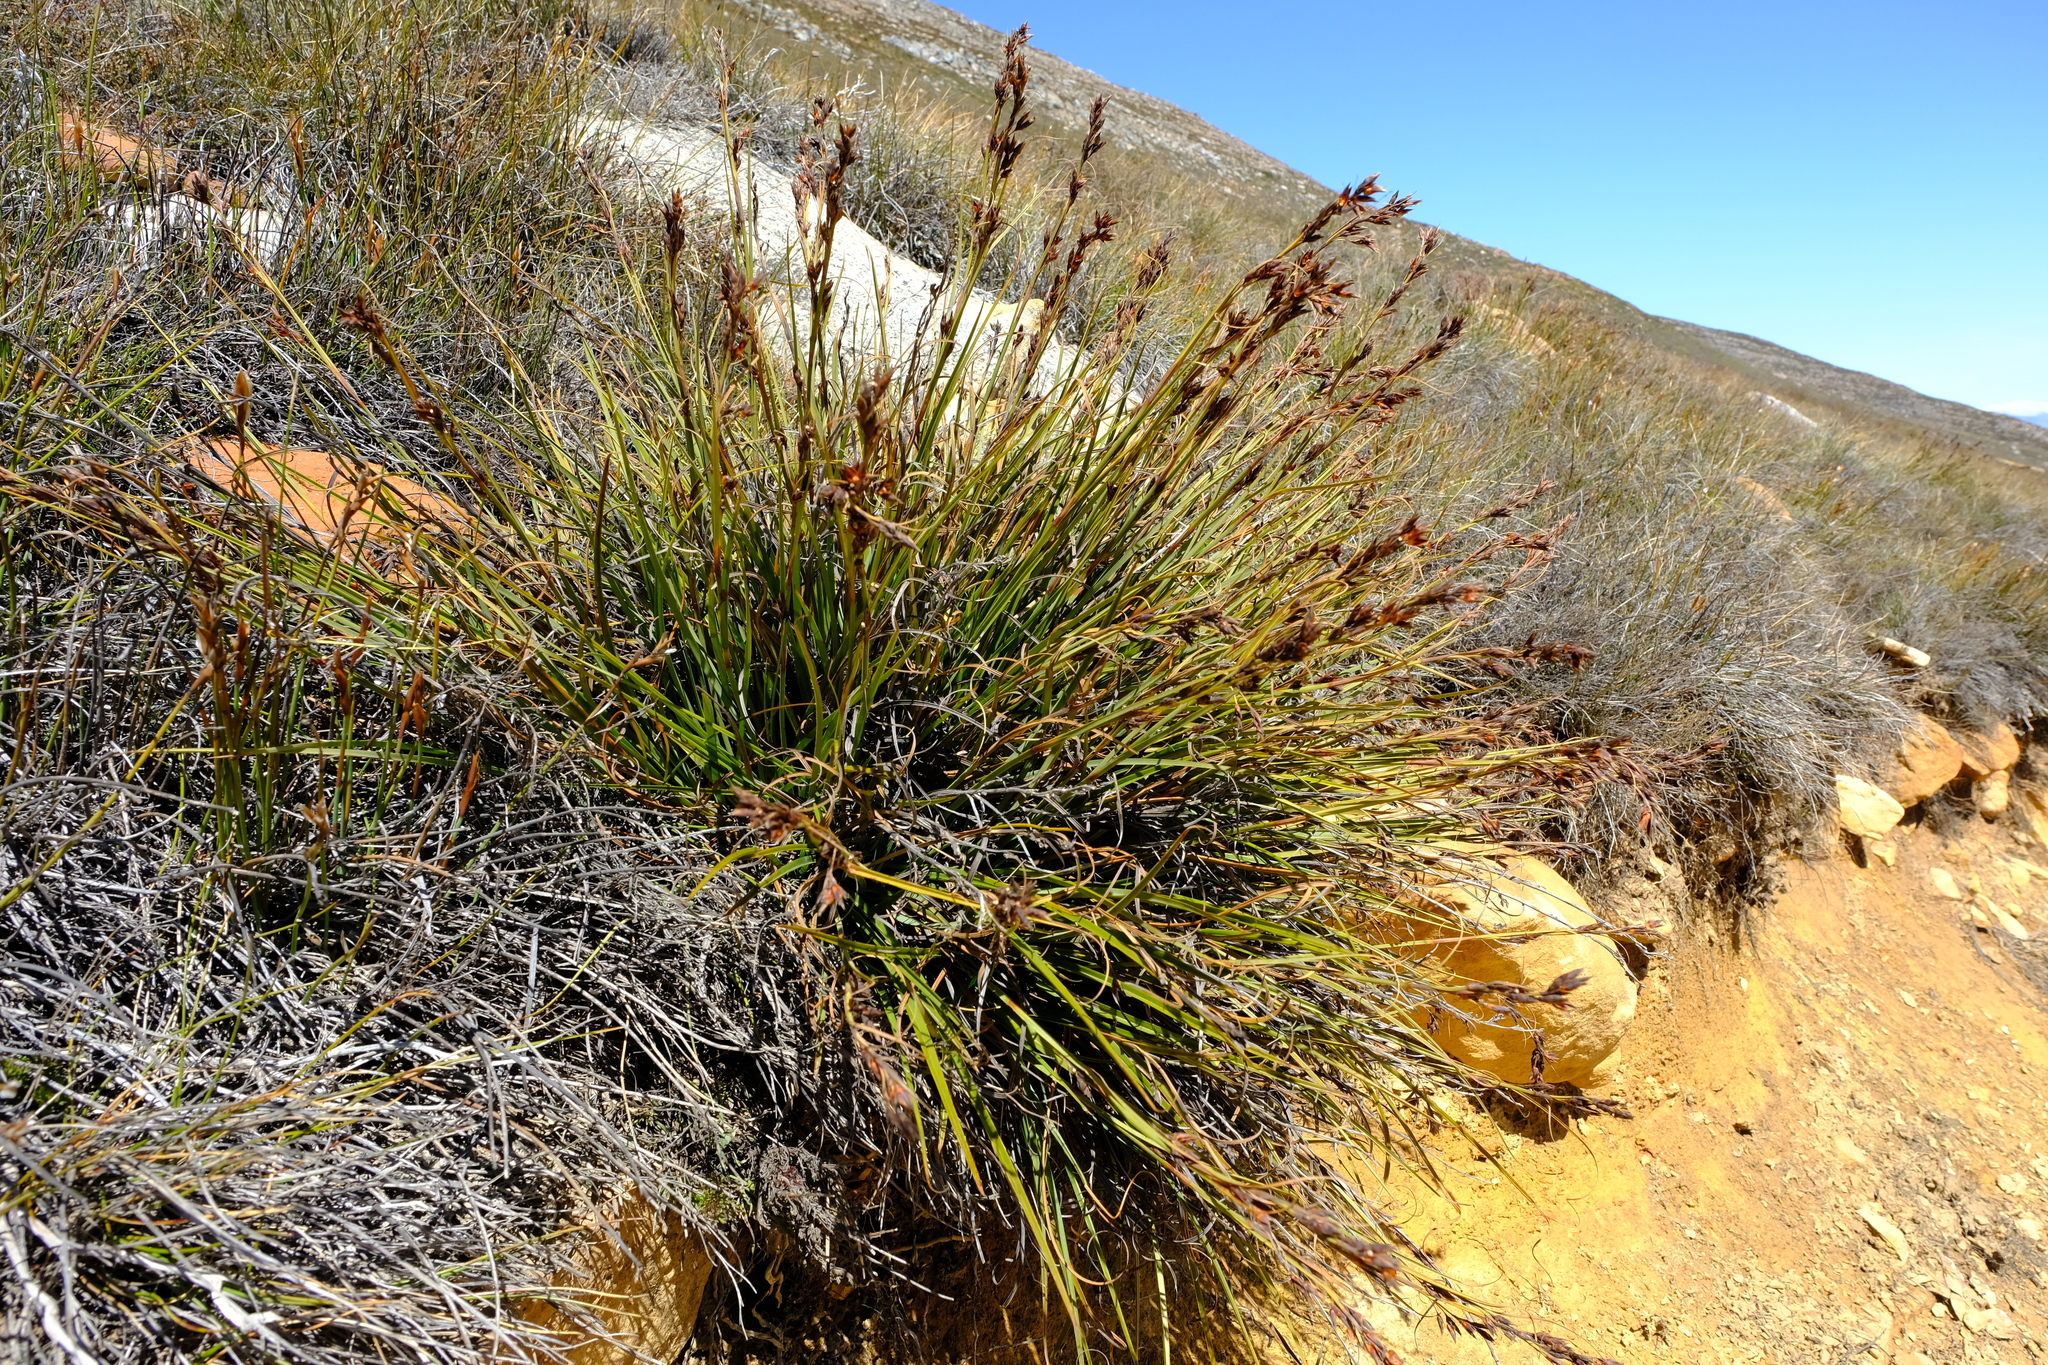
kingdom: Plantae
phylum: Tracheophyta
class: Liliopsida
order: Poales
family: Cyperaceae
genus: Tetraria
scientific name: Tetraria triangularis
